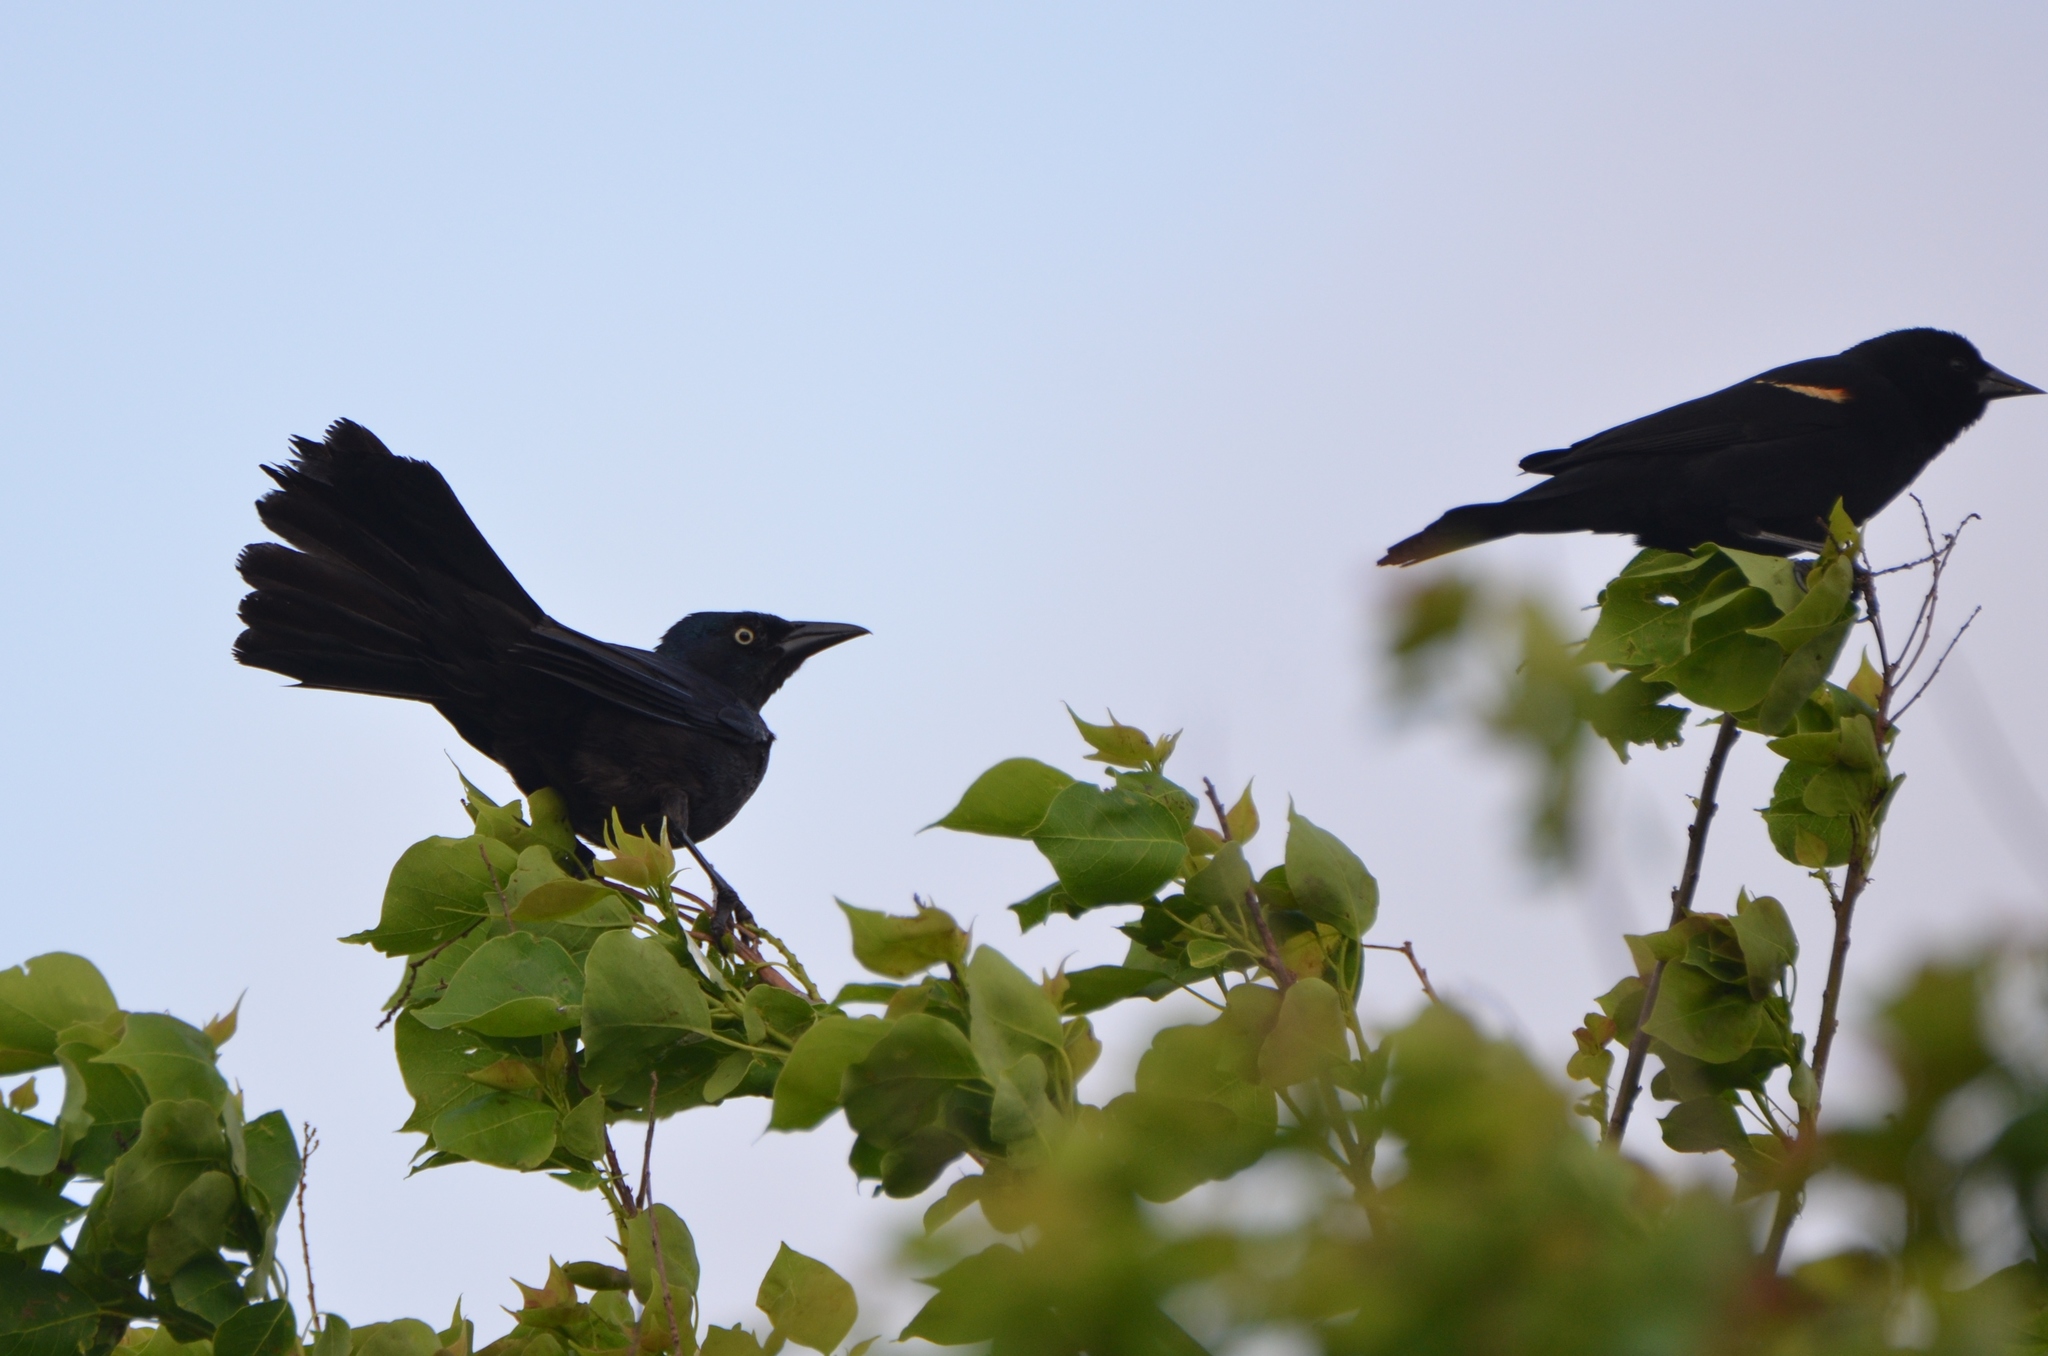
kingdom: Animalia
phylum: Chordata
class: Aves
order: Passeriformes
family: Icteridae
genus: Quiscalus
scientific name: Quiscalus mexicanus
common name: Great-tailed grackle
